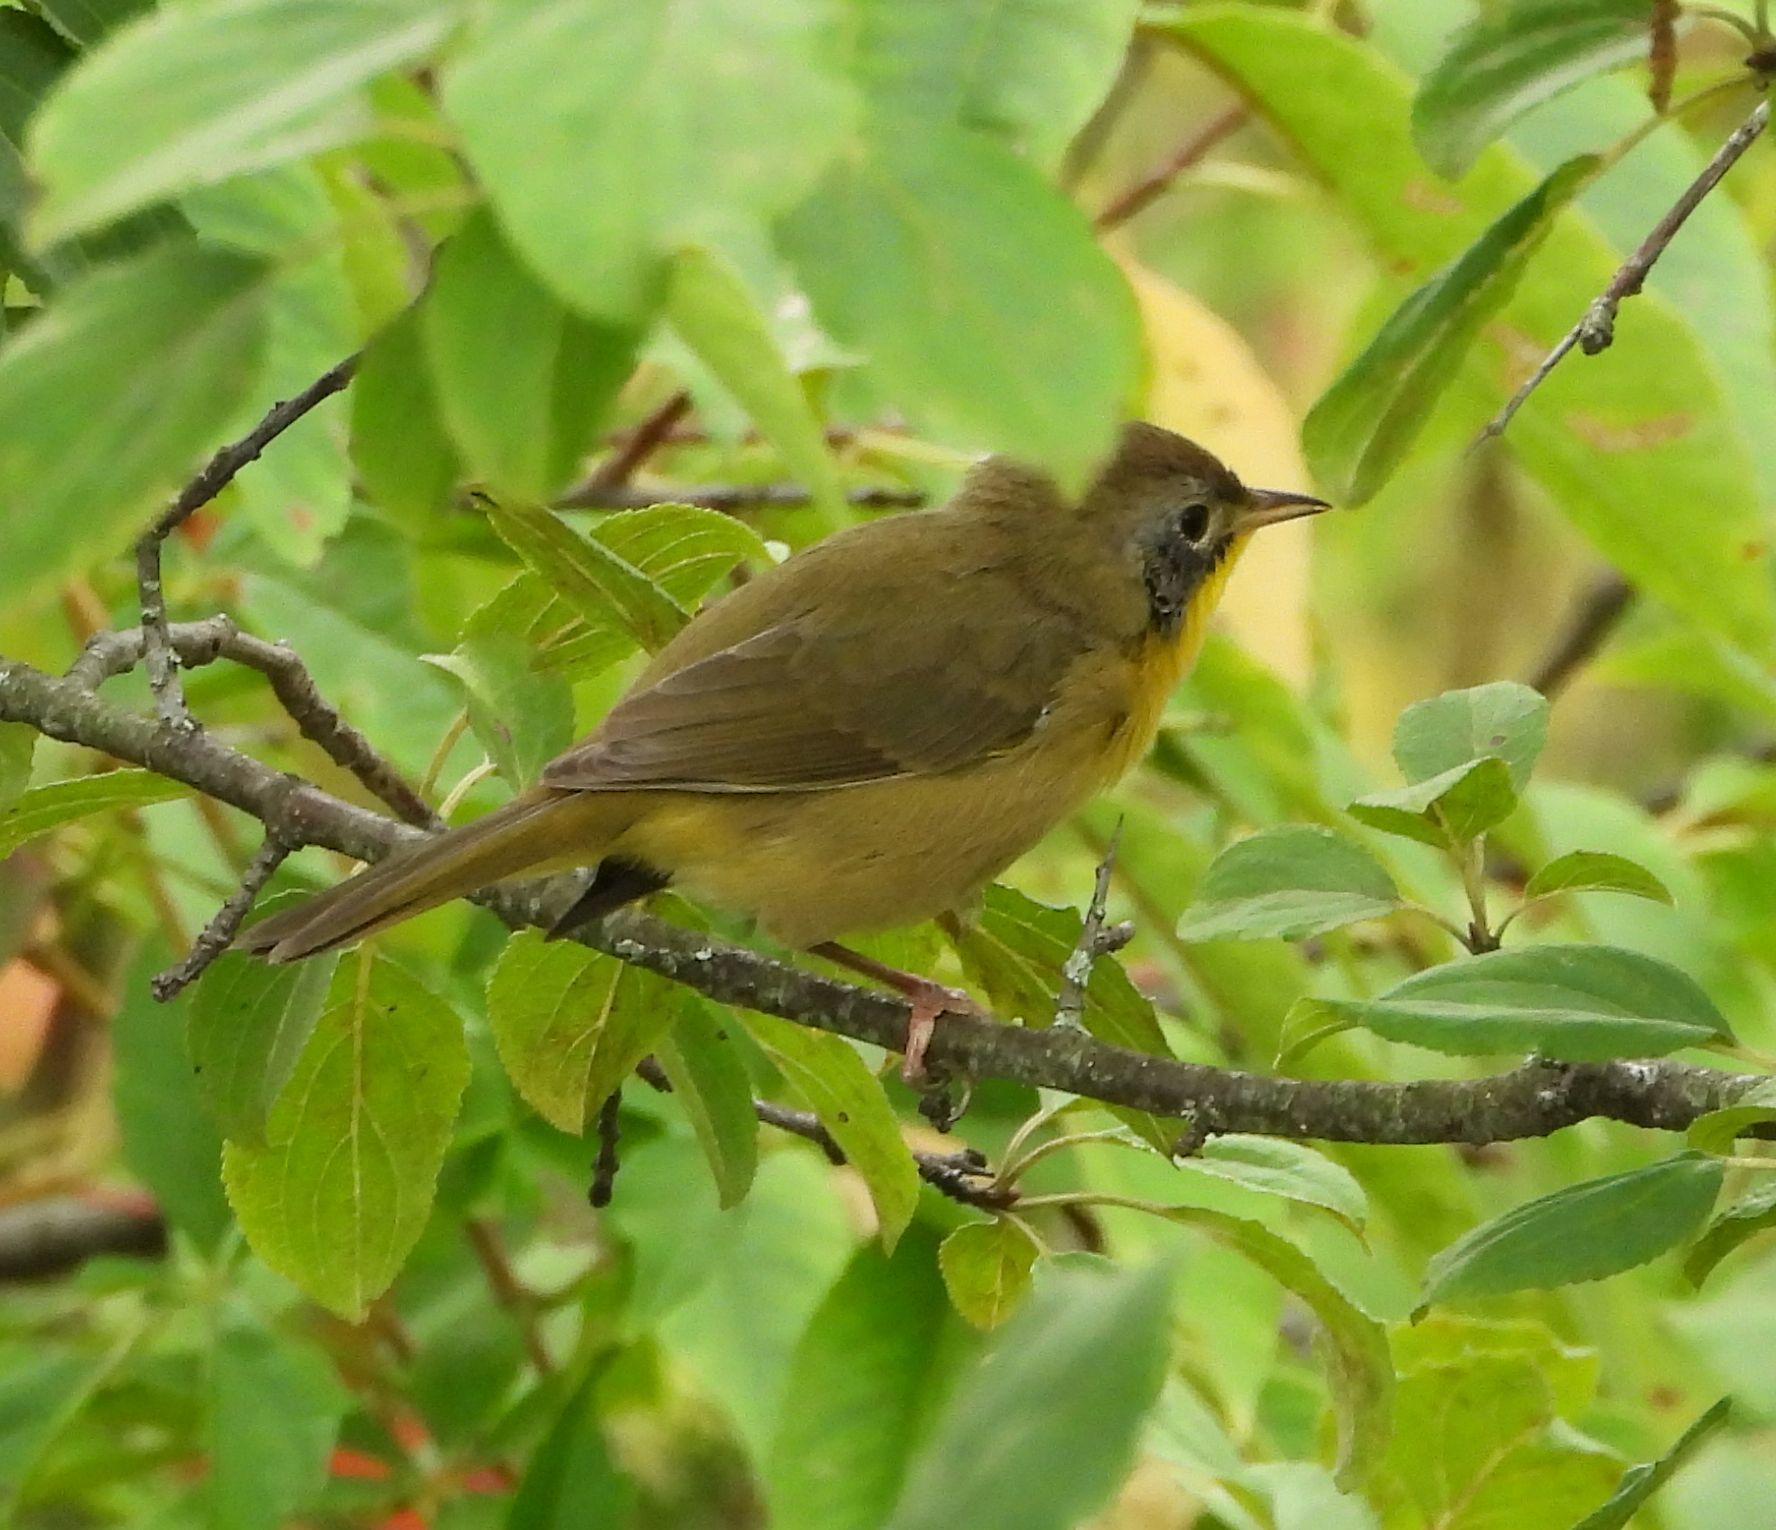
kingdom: Animalia
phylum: Chordata
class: Aves
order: Passeriformes
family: Parulidae
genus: Geothlypis
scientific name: Geothlypis trichas
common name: Common yellowthroat
